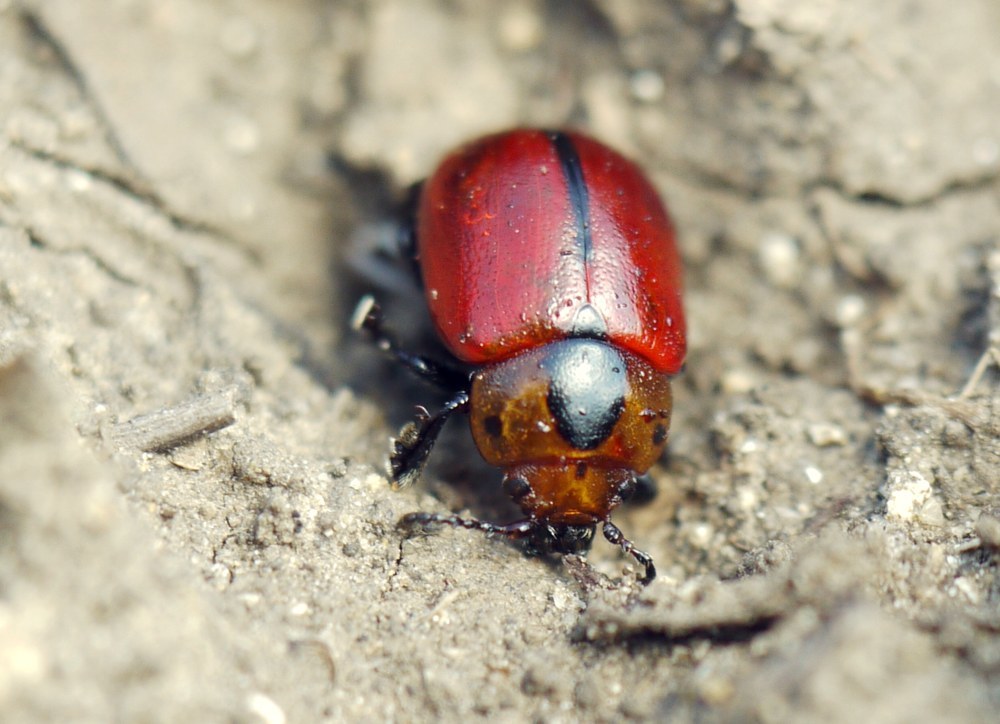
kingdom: Animalia
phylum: Arthropoda
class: Insecta
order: Coleoptera
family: Chrysomelidae
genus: Entomoscelis
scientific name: Entomoscelis suturalis
